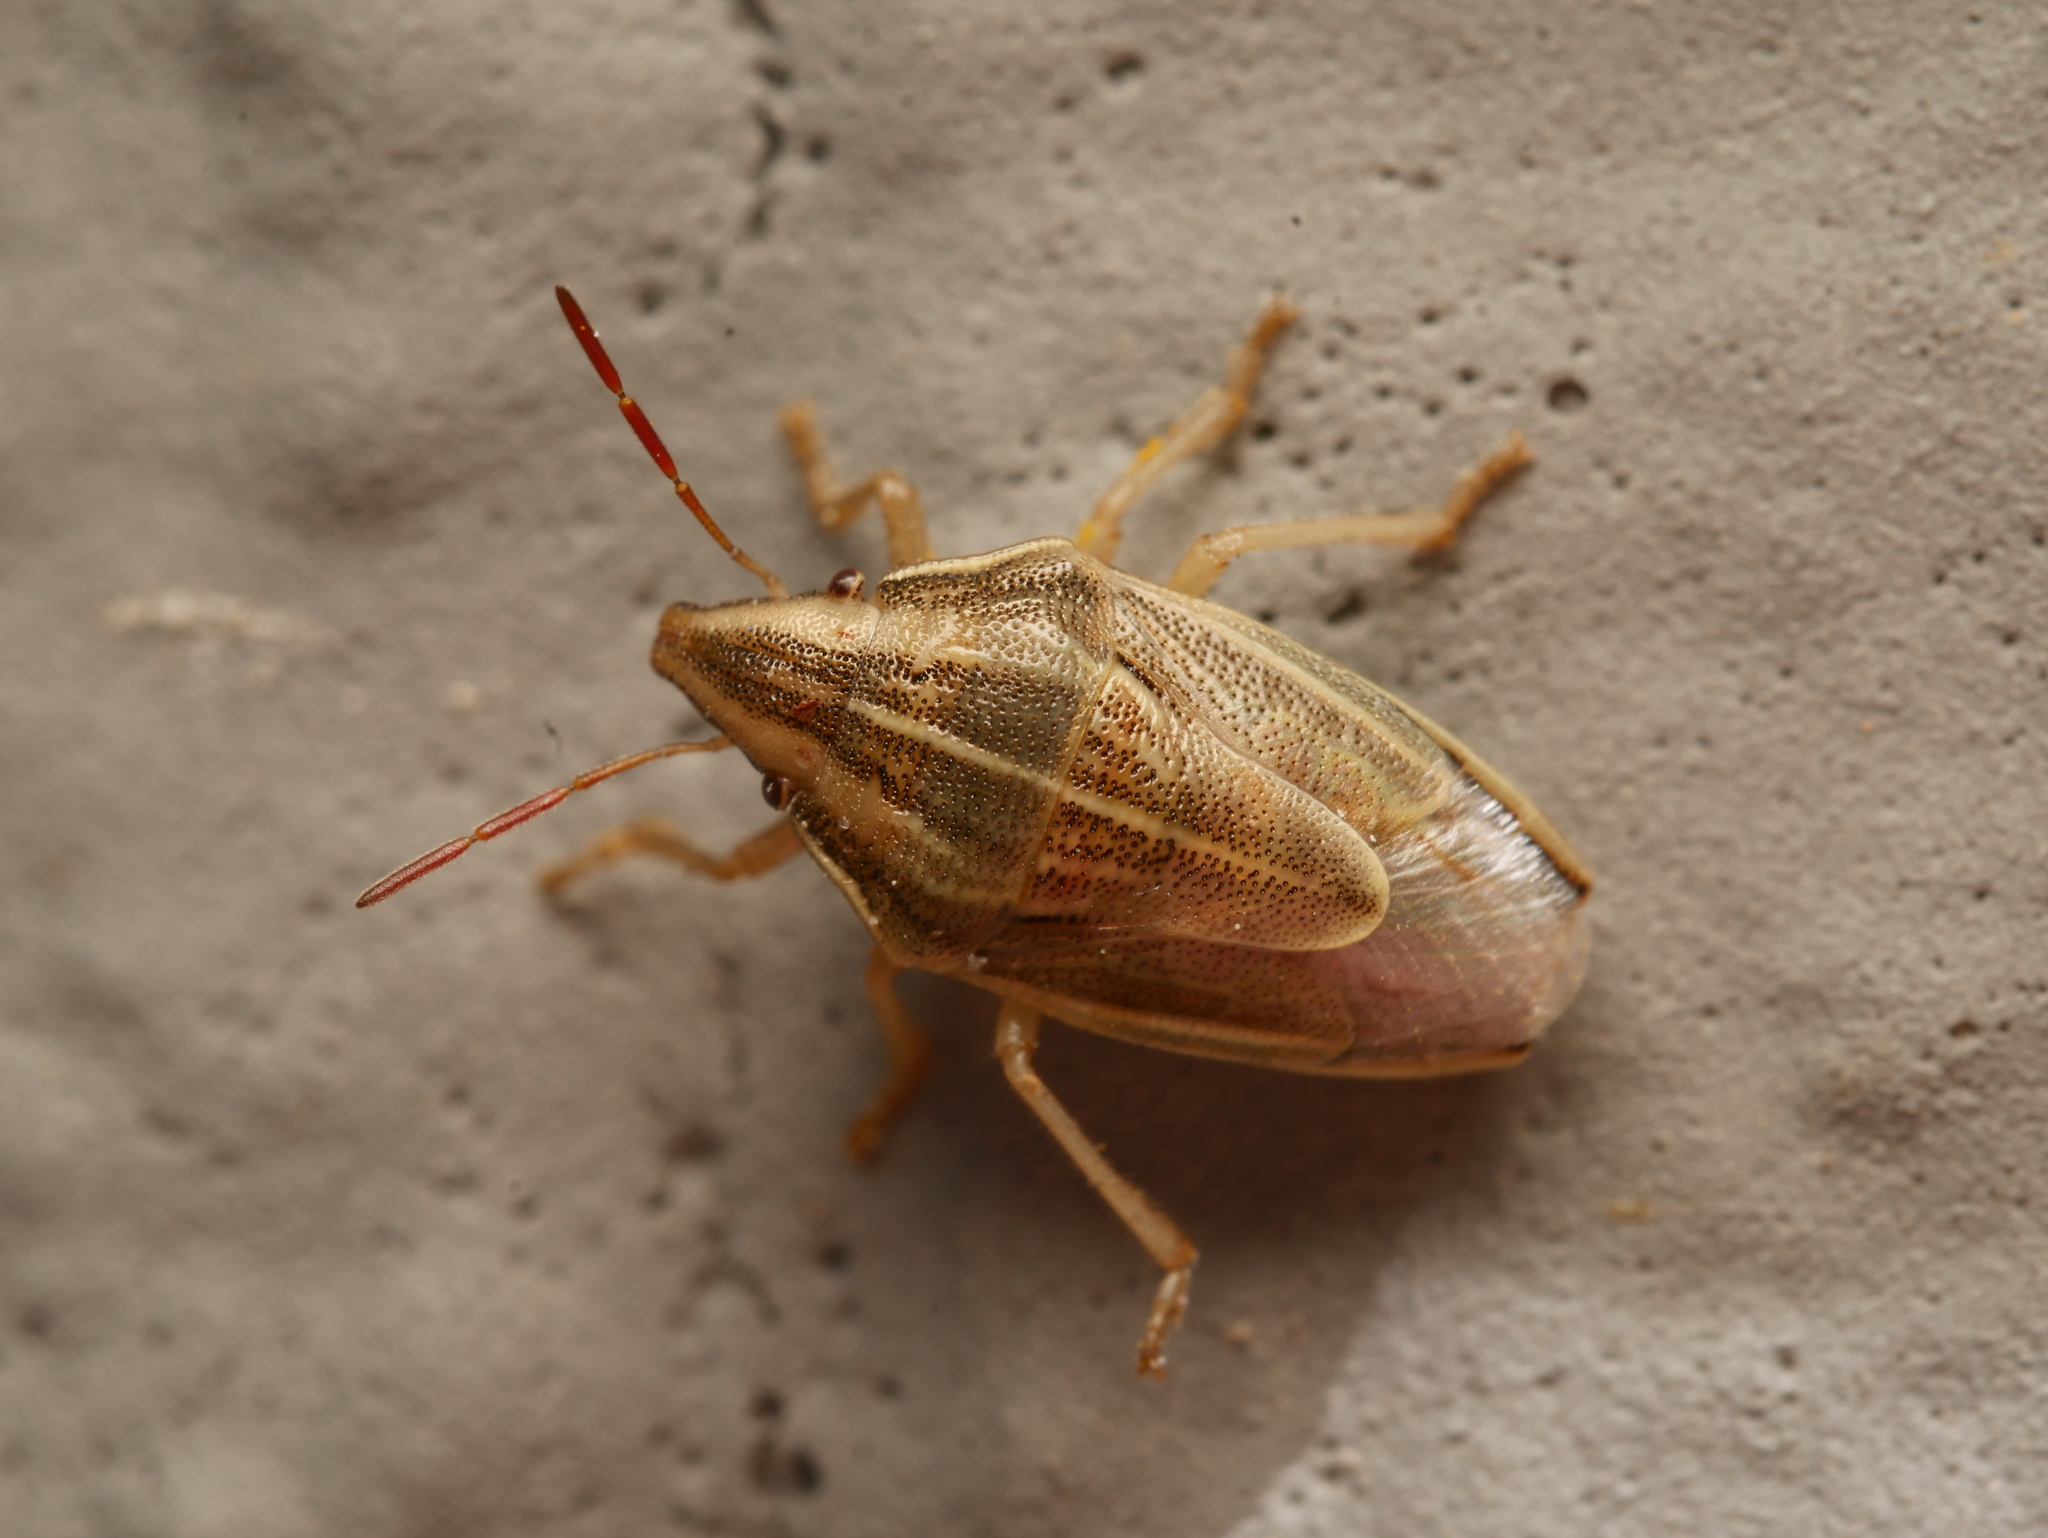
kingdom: Animalia
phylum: Arthropoda
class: Insecta
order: Hemiptera
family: Pentatomidae
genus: Aelia
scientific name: Aelia acuminata
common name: Bishop's mitre
